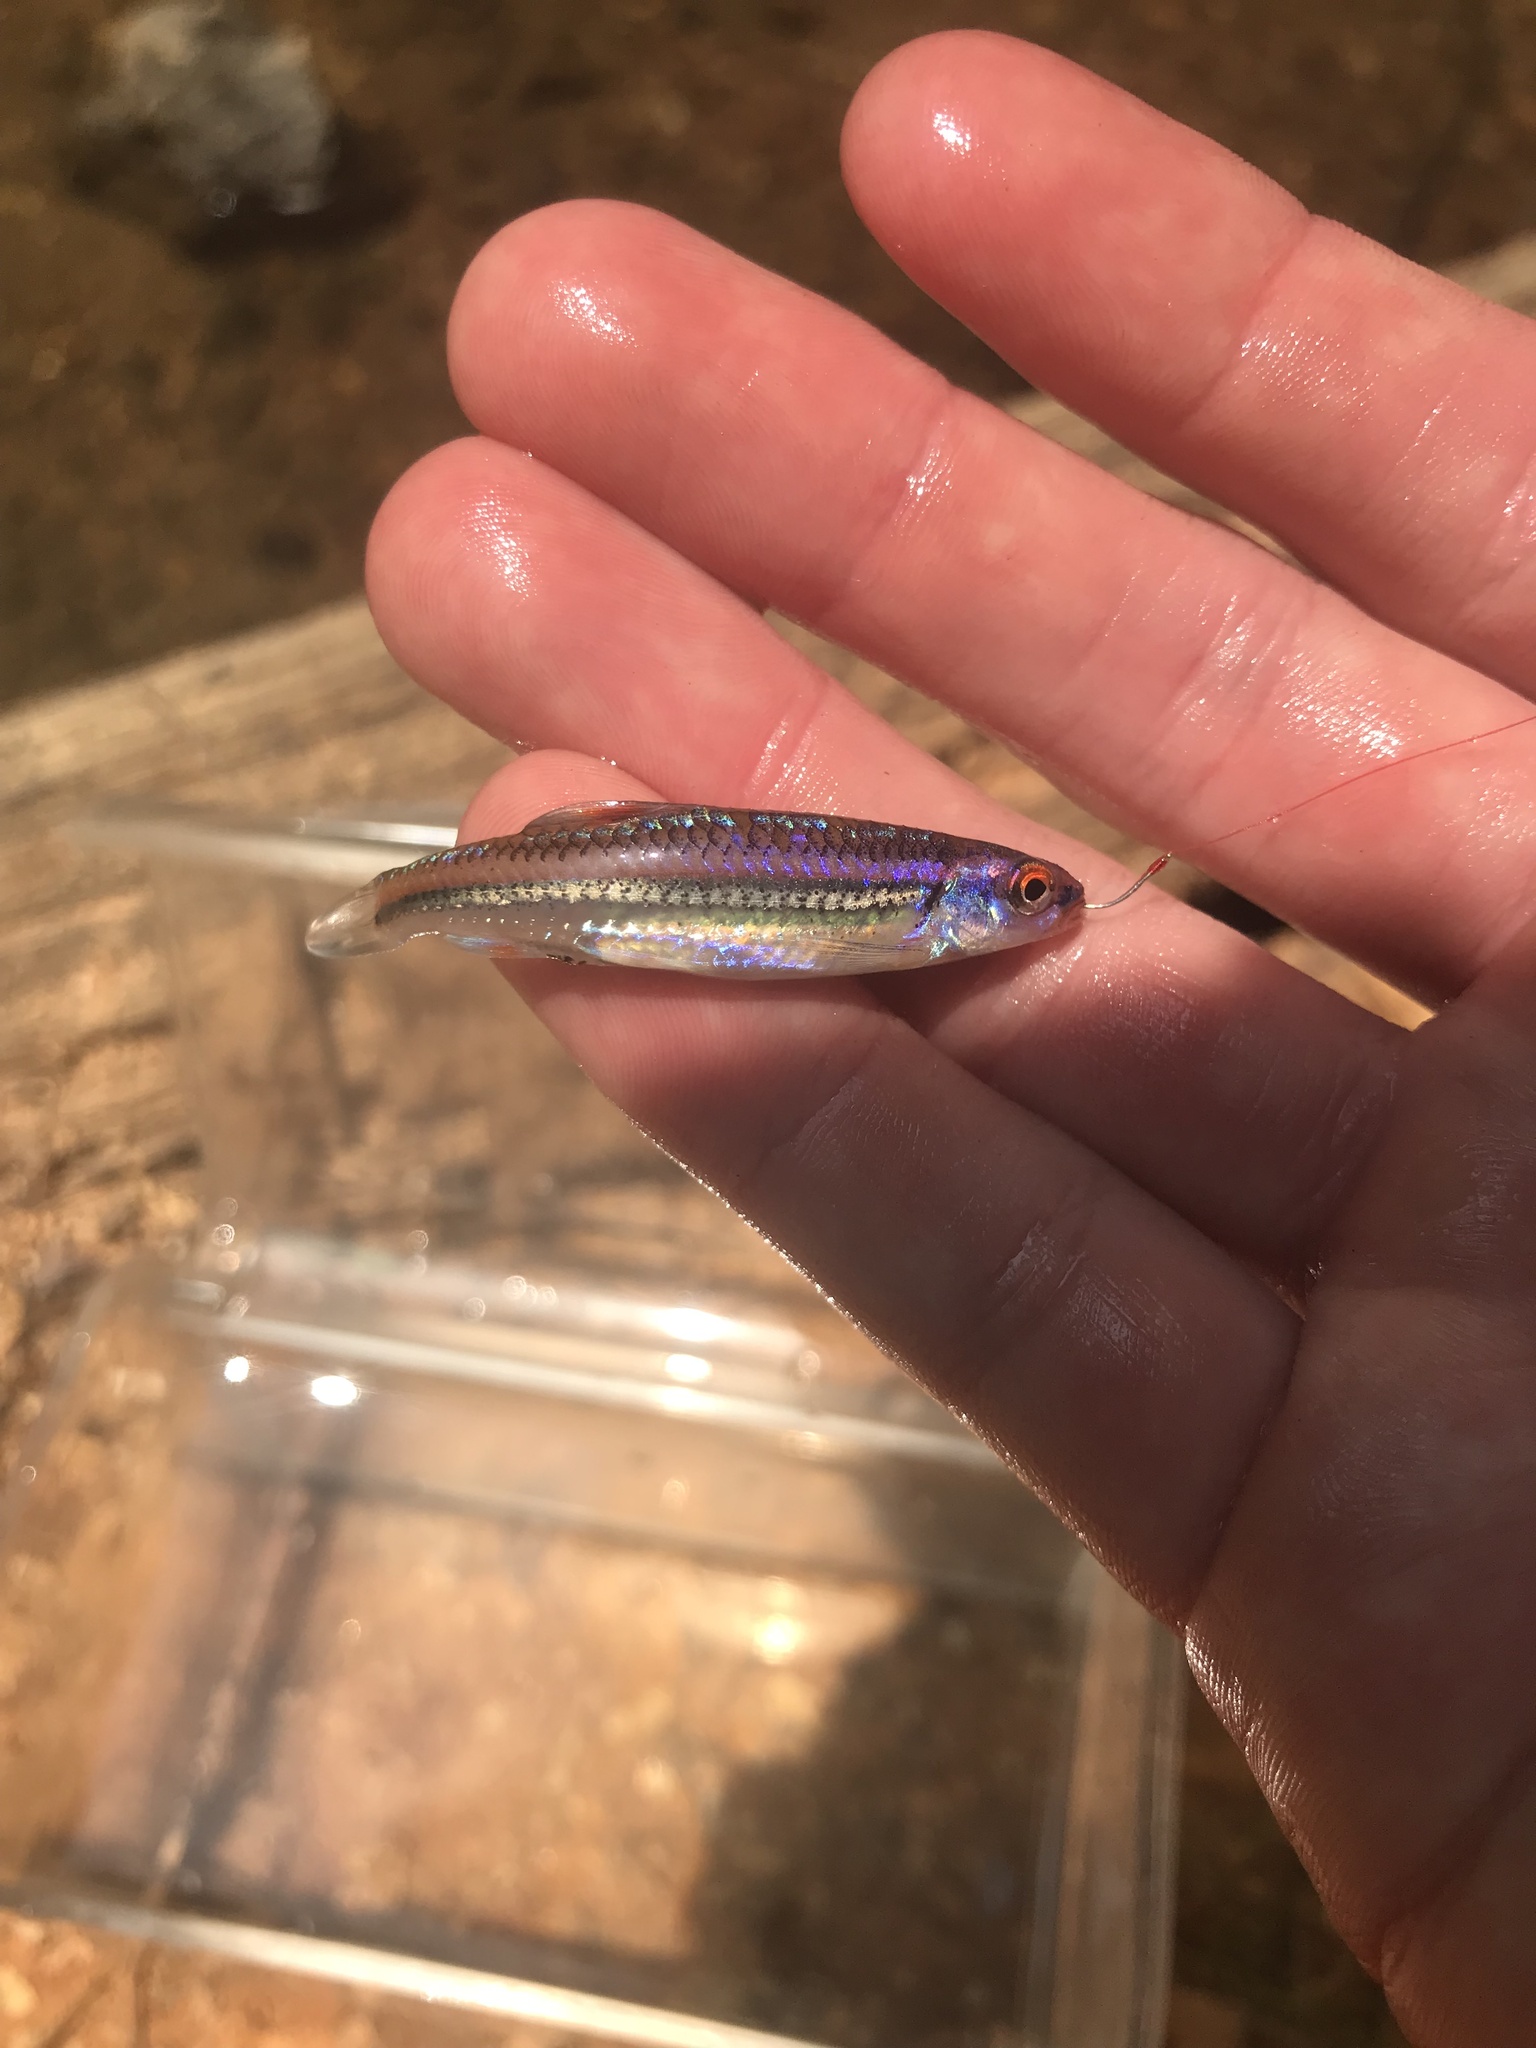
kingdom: Animalia
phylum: Chordata
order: Cypriniformes
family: Cyprinidae
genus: Notropis
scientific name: Notropis
